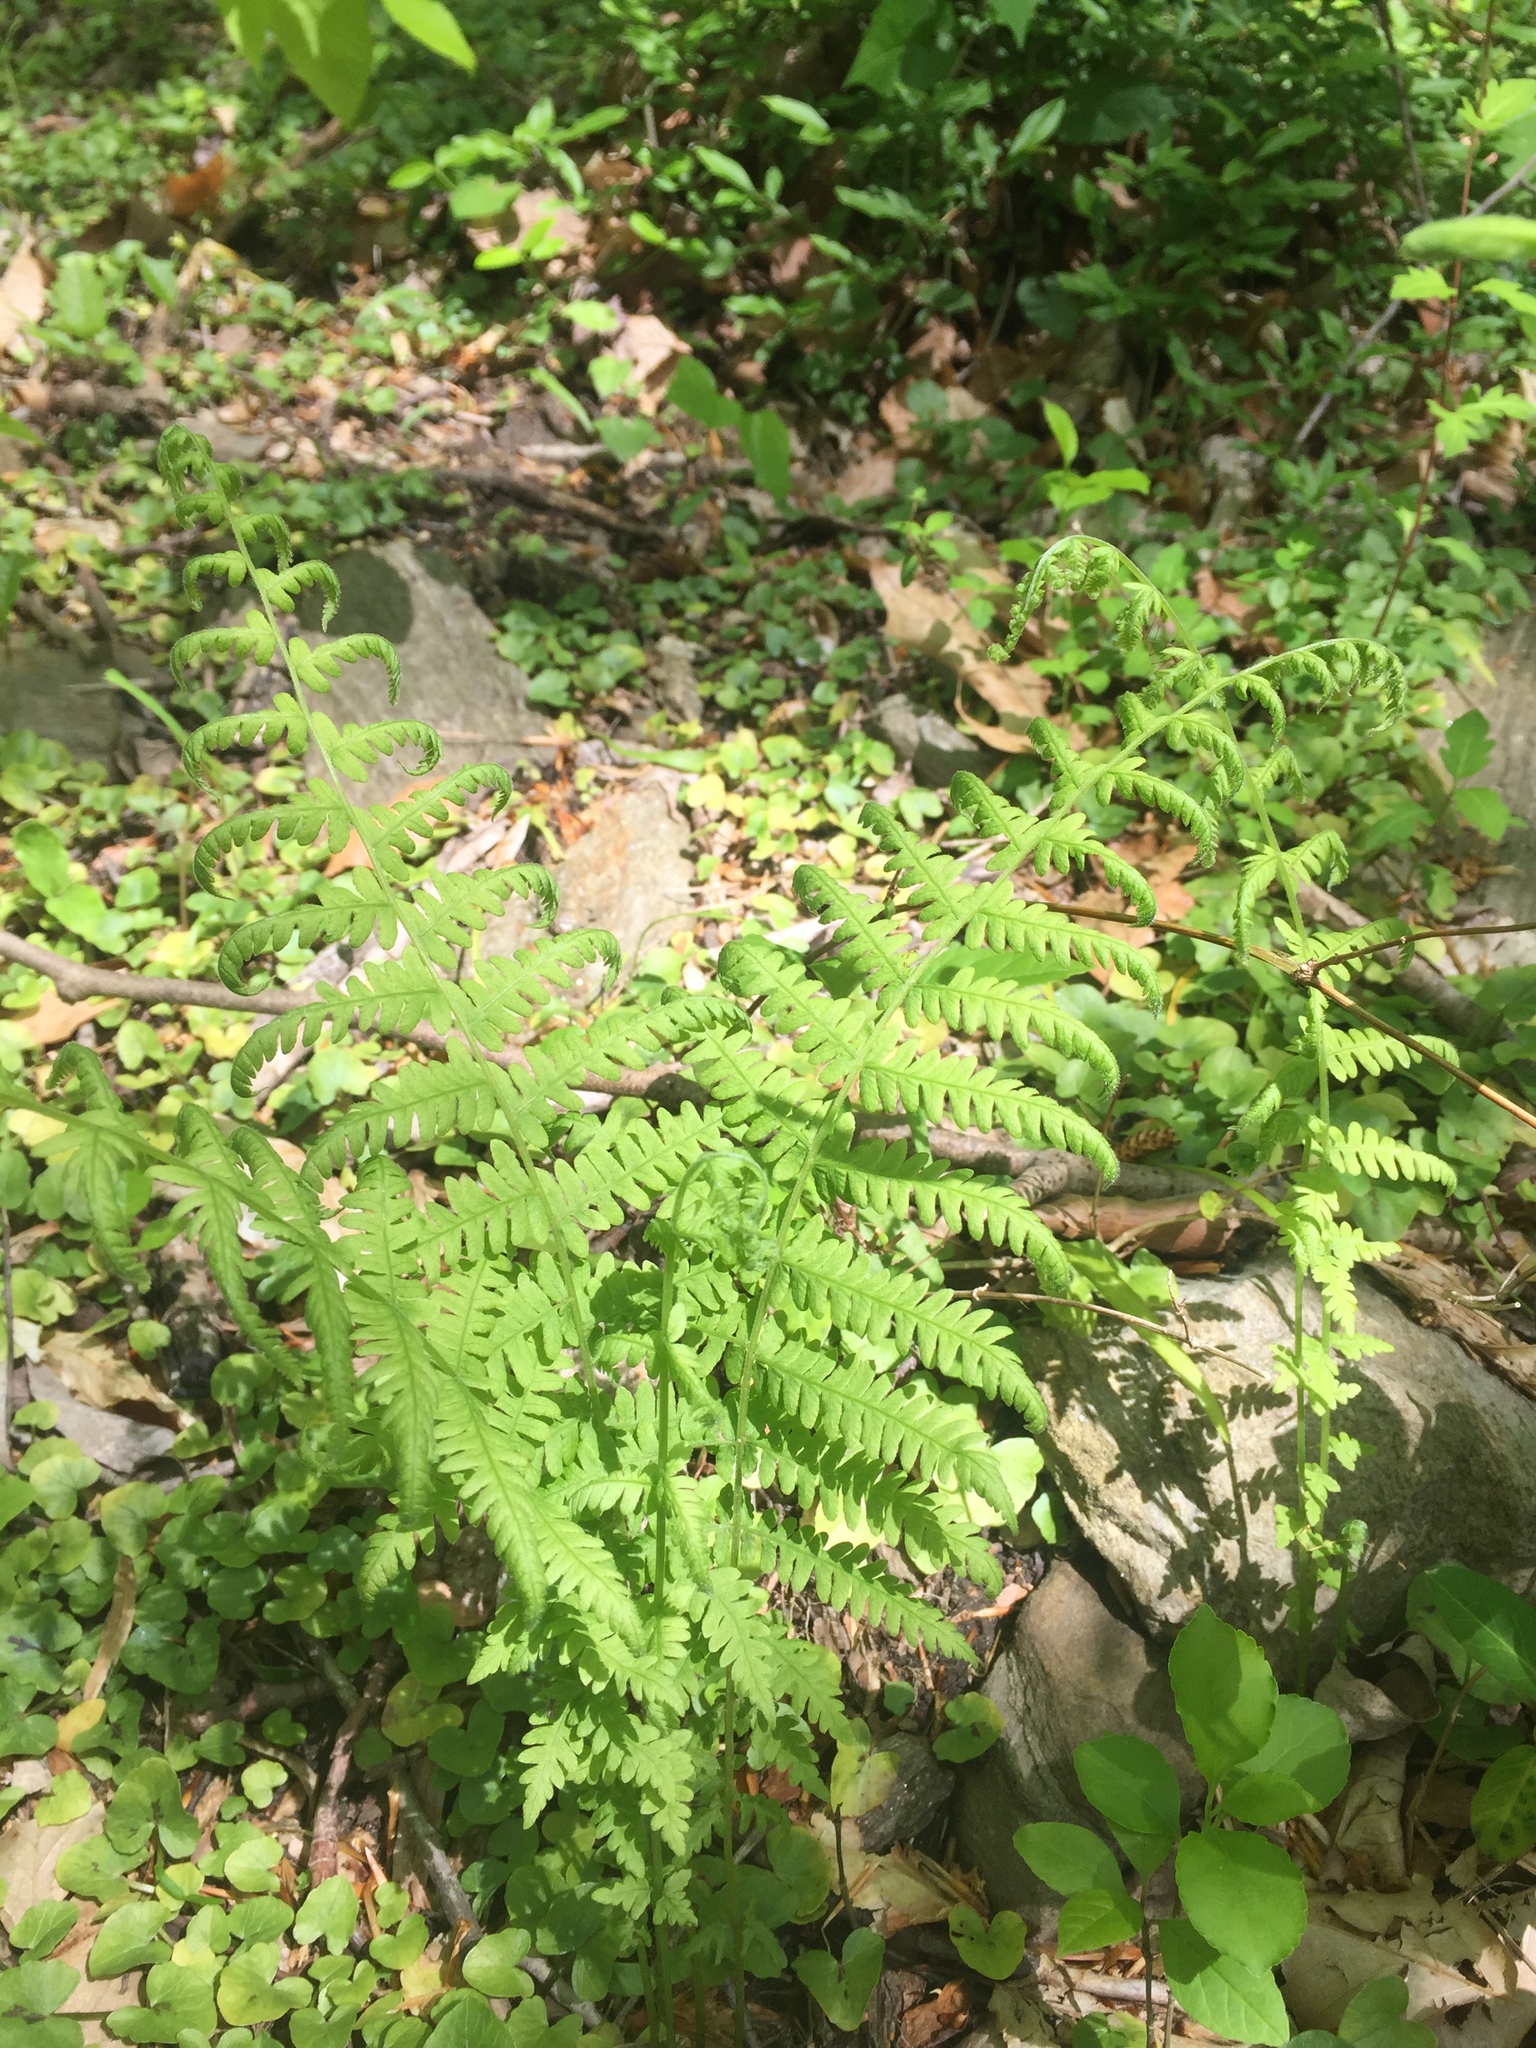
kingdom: Plantae
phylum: Tracheophyta
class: Polypodiopsida
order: Polypodiales
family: Thelypteridaceae
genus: Amauropelta
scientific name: Amauropelta noveboracensis
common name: New york fern
